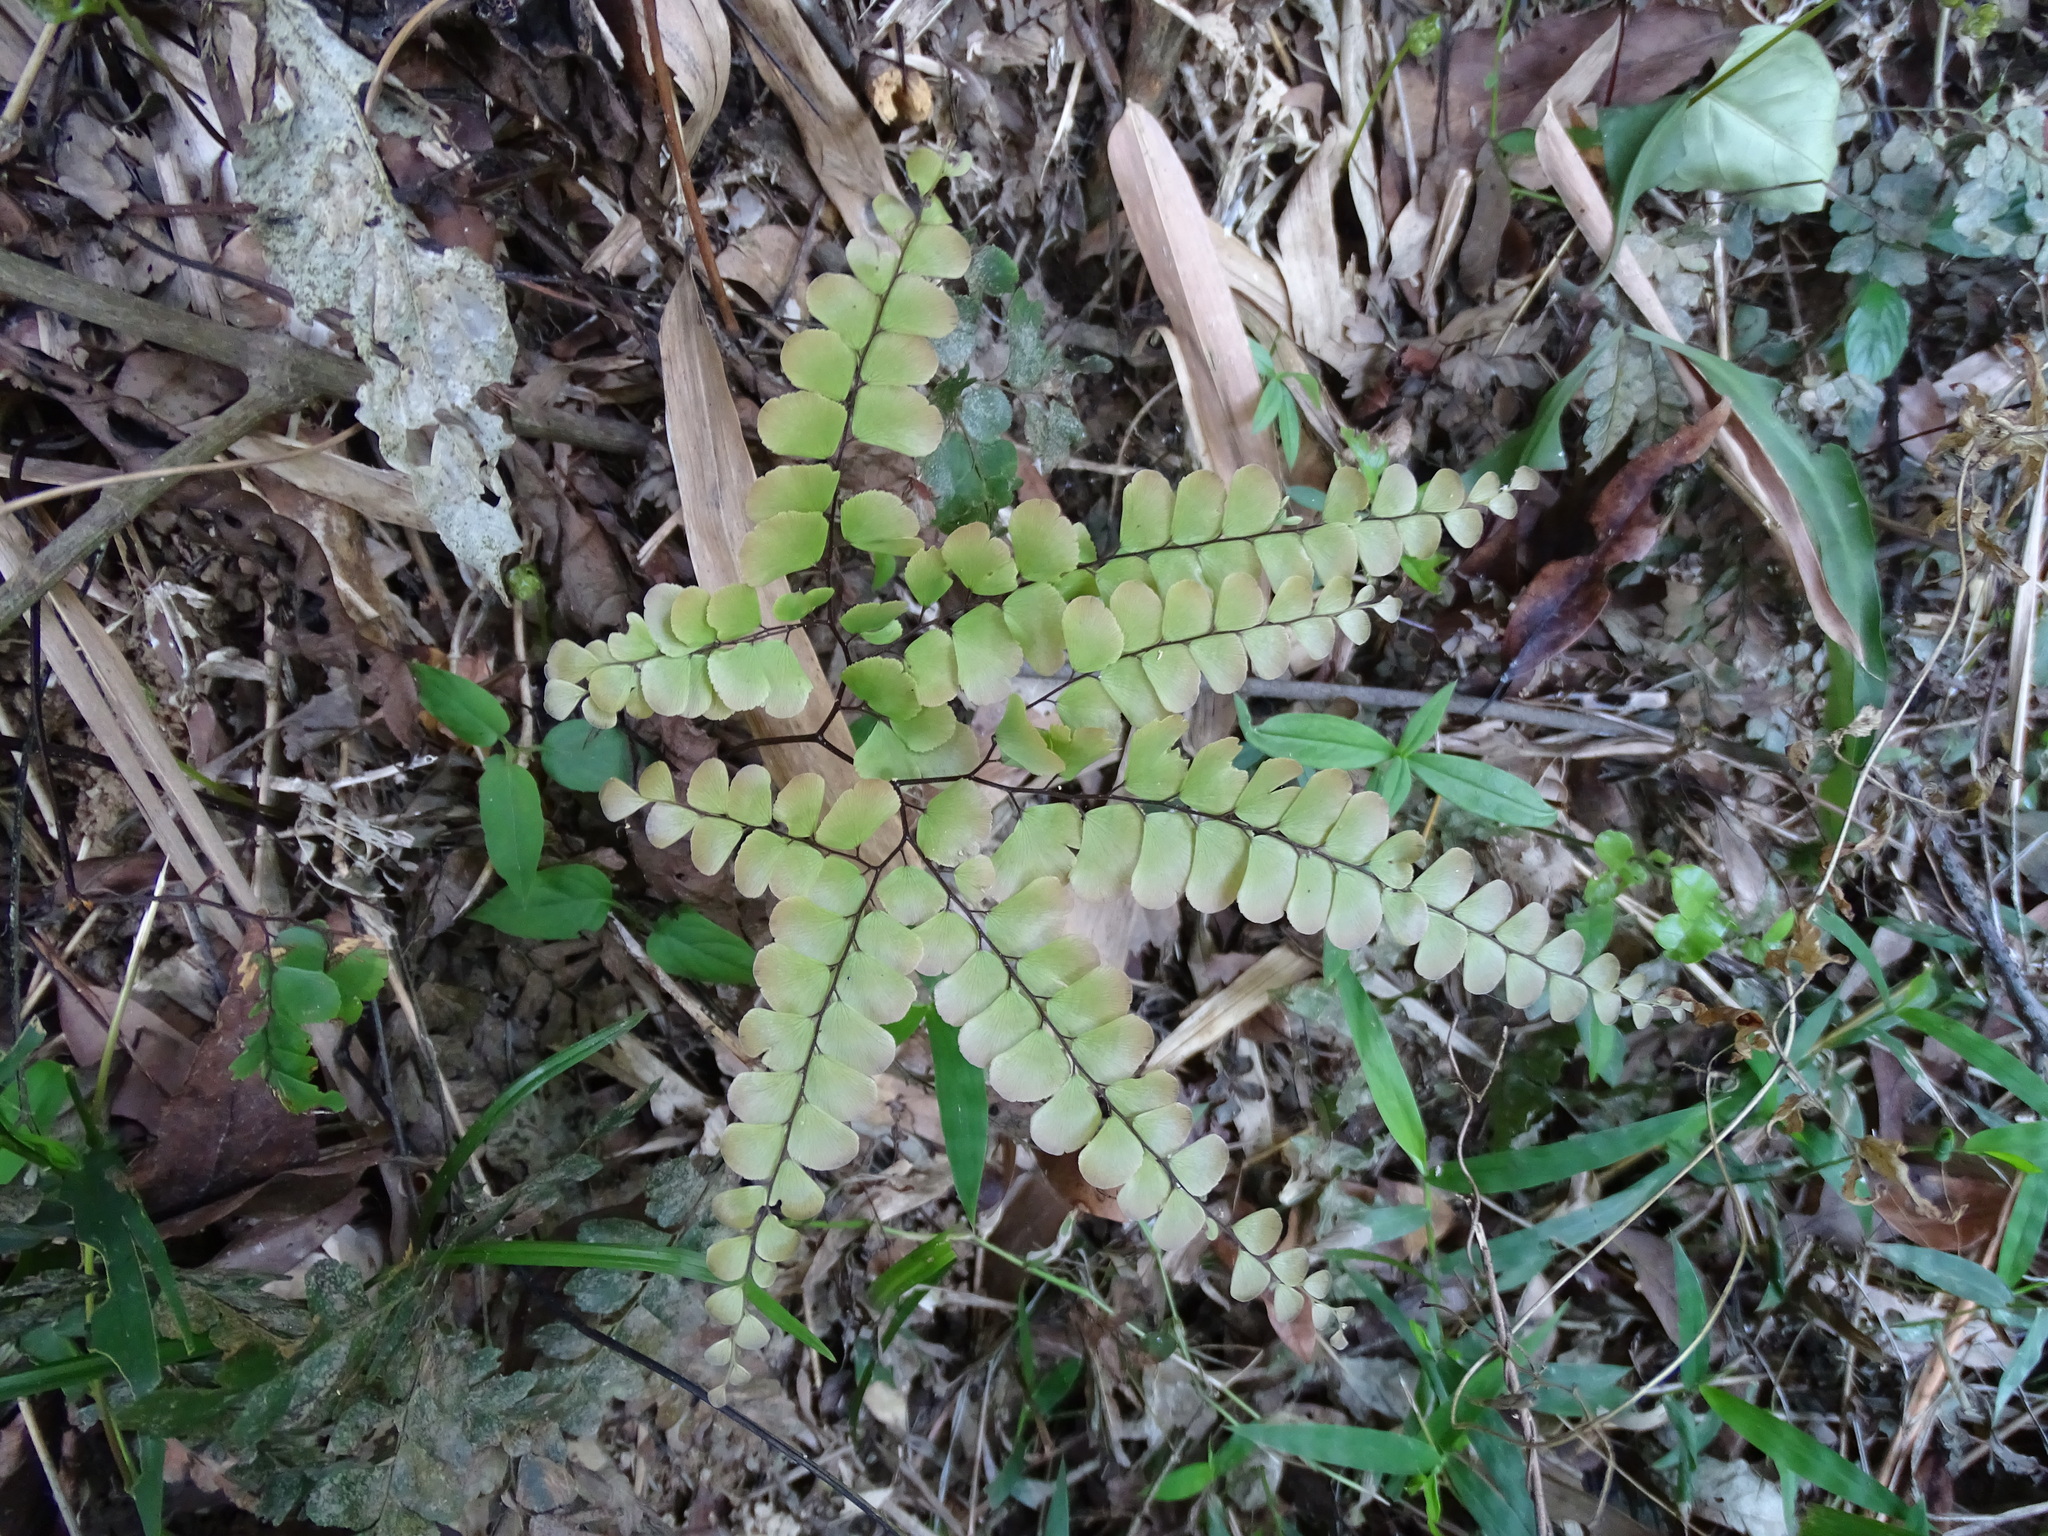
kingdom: Plantae
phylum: Tracheophyta
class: Polypodiopsida
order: Polypodiales
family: Pteridaceae
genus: Adiantum
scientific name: Adiantum flabellulatum
